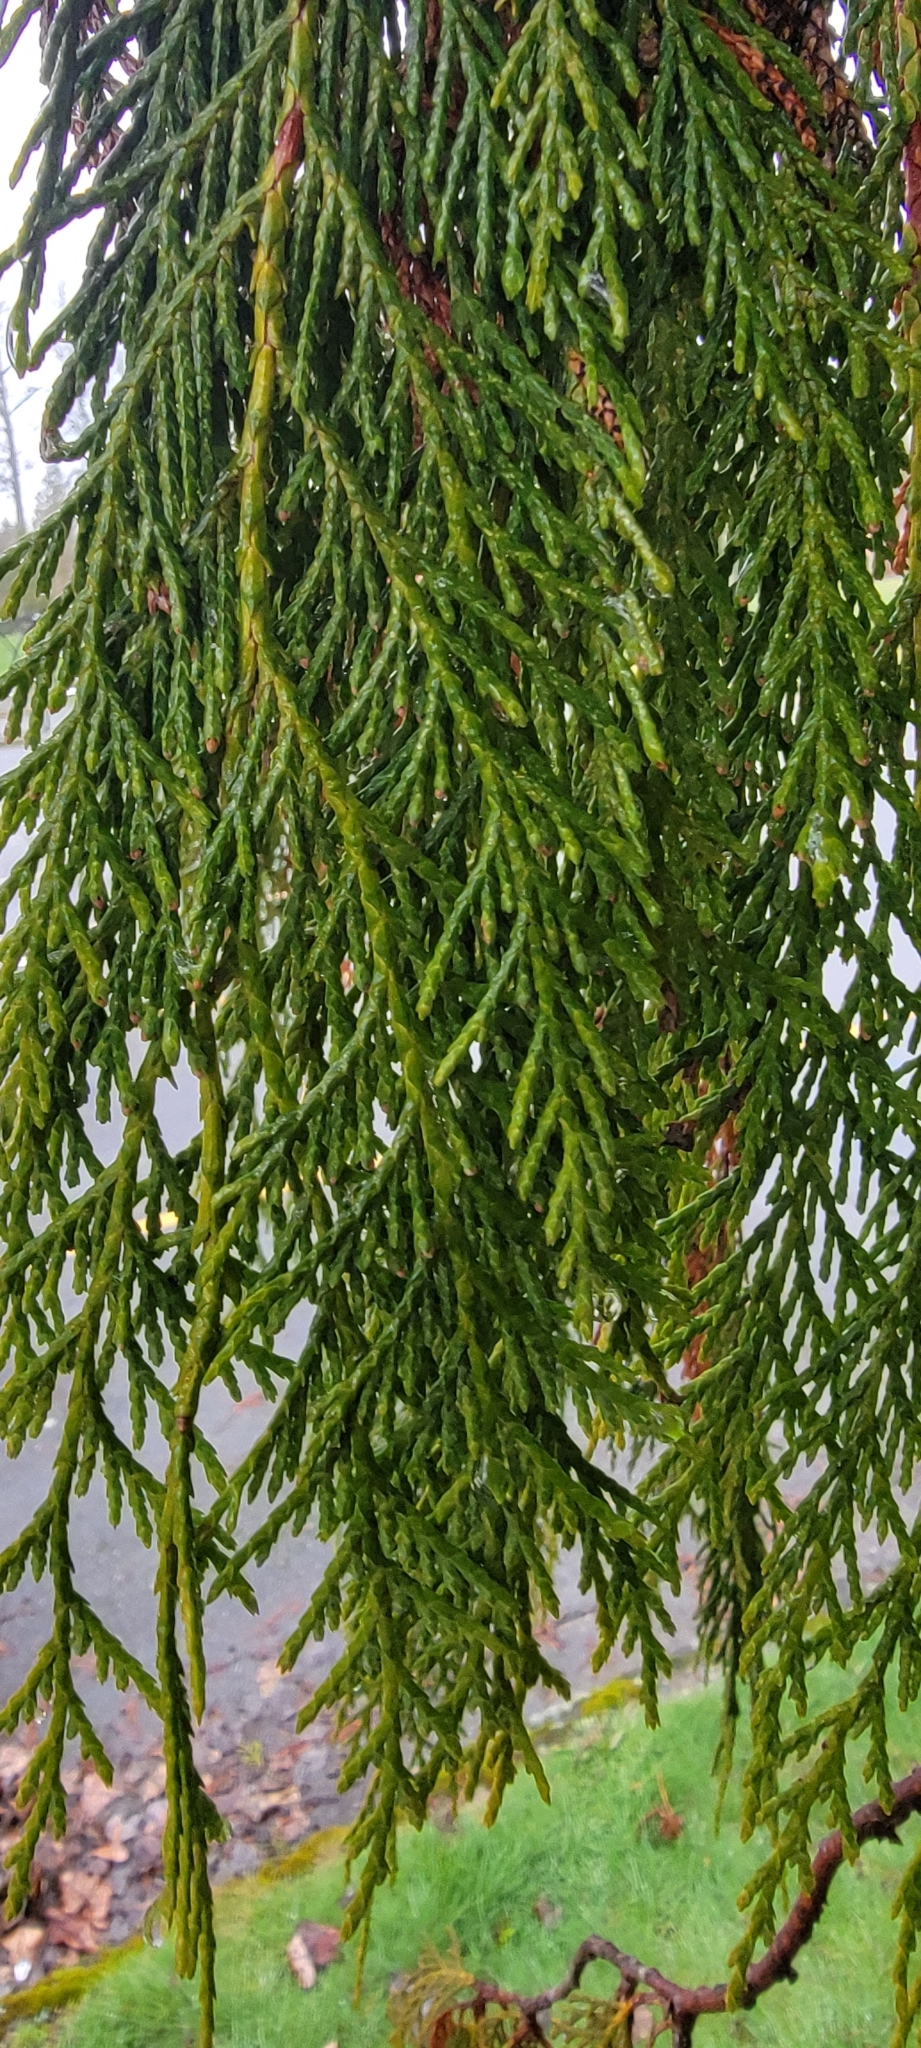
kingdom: Plantae
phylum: Tracheophyta
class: Pinopsida
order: Pinales
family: Cupressaceae
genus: Xanthocyparis
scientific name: Xanthocyparis nootkatensis
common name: Nootka cypress
